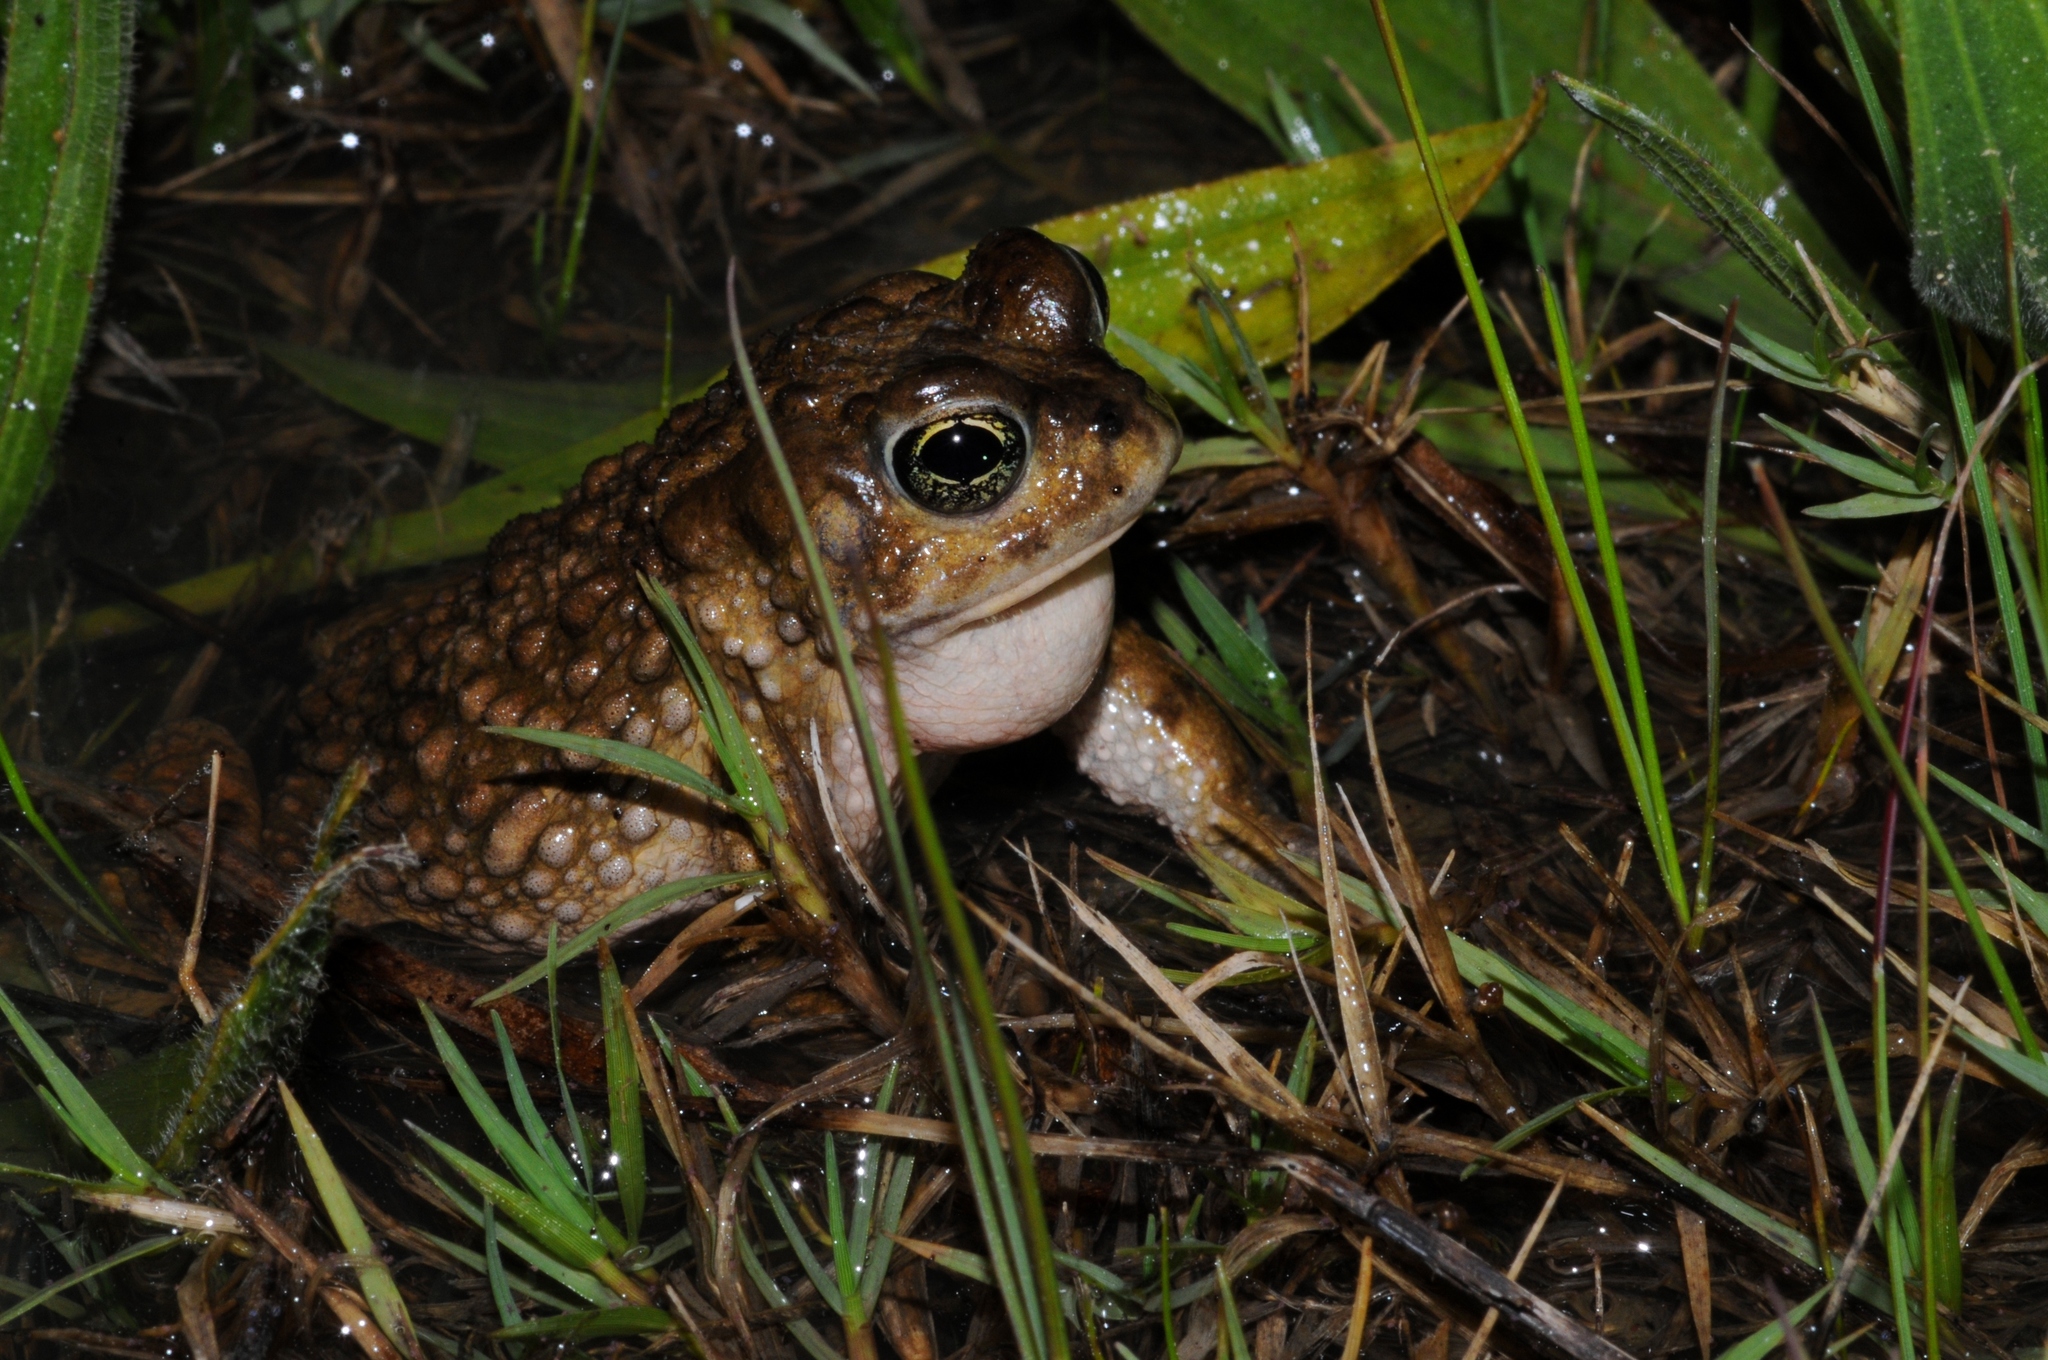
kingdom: Animalia
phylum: Chordata
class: Amphibia
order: Anura
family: Bufonidae
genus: Vandijkophrynus
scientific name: Vandijkophrynus angusticeps
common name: Sand toad
